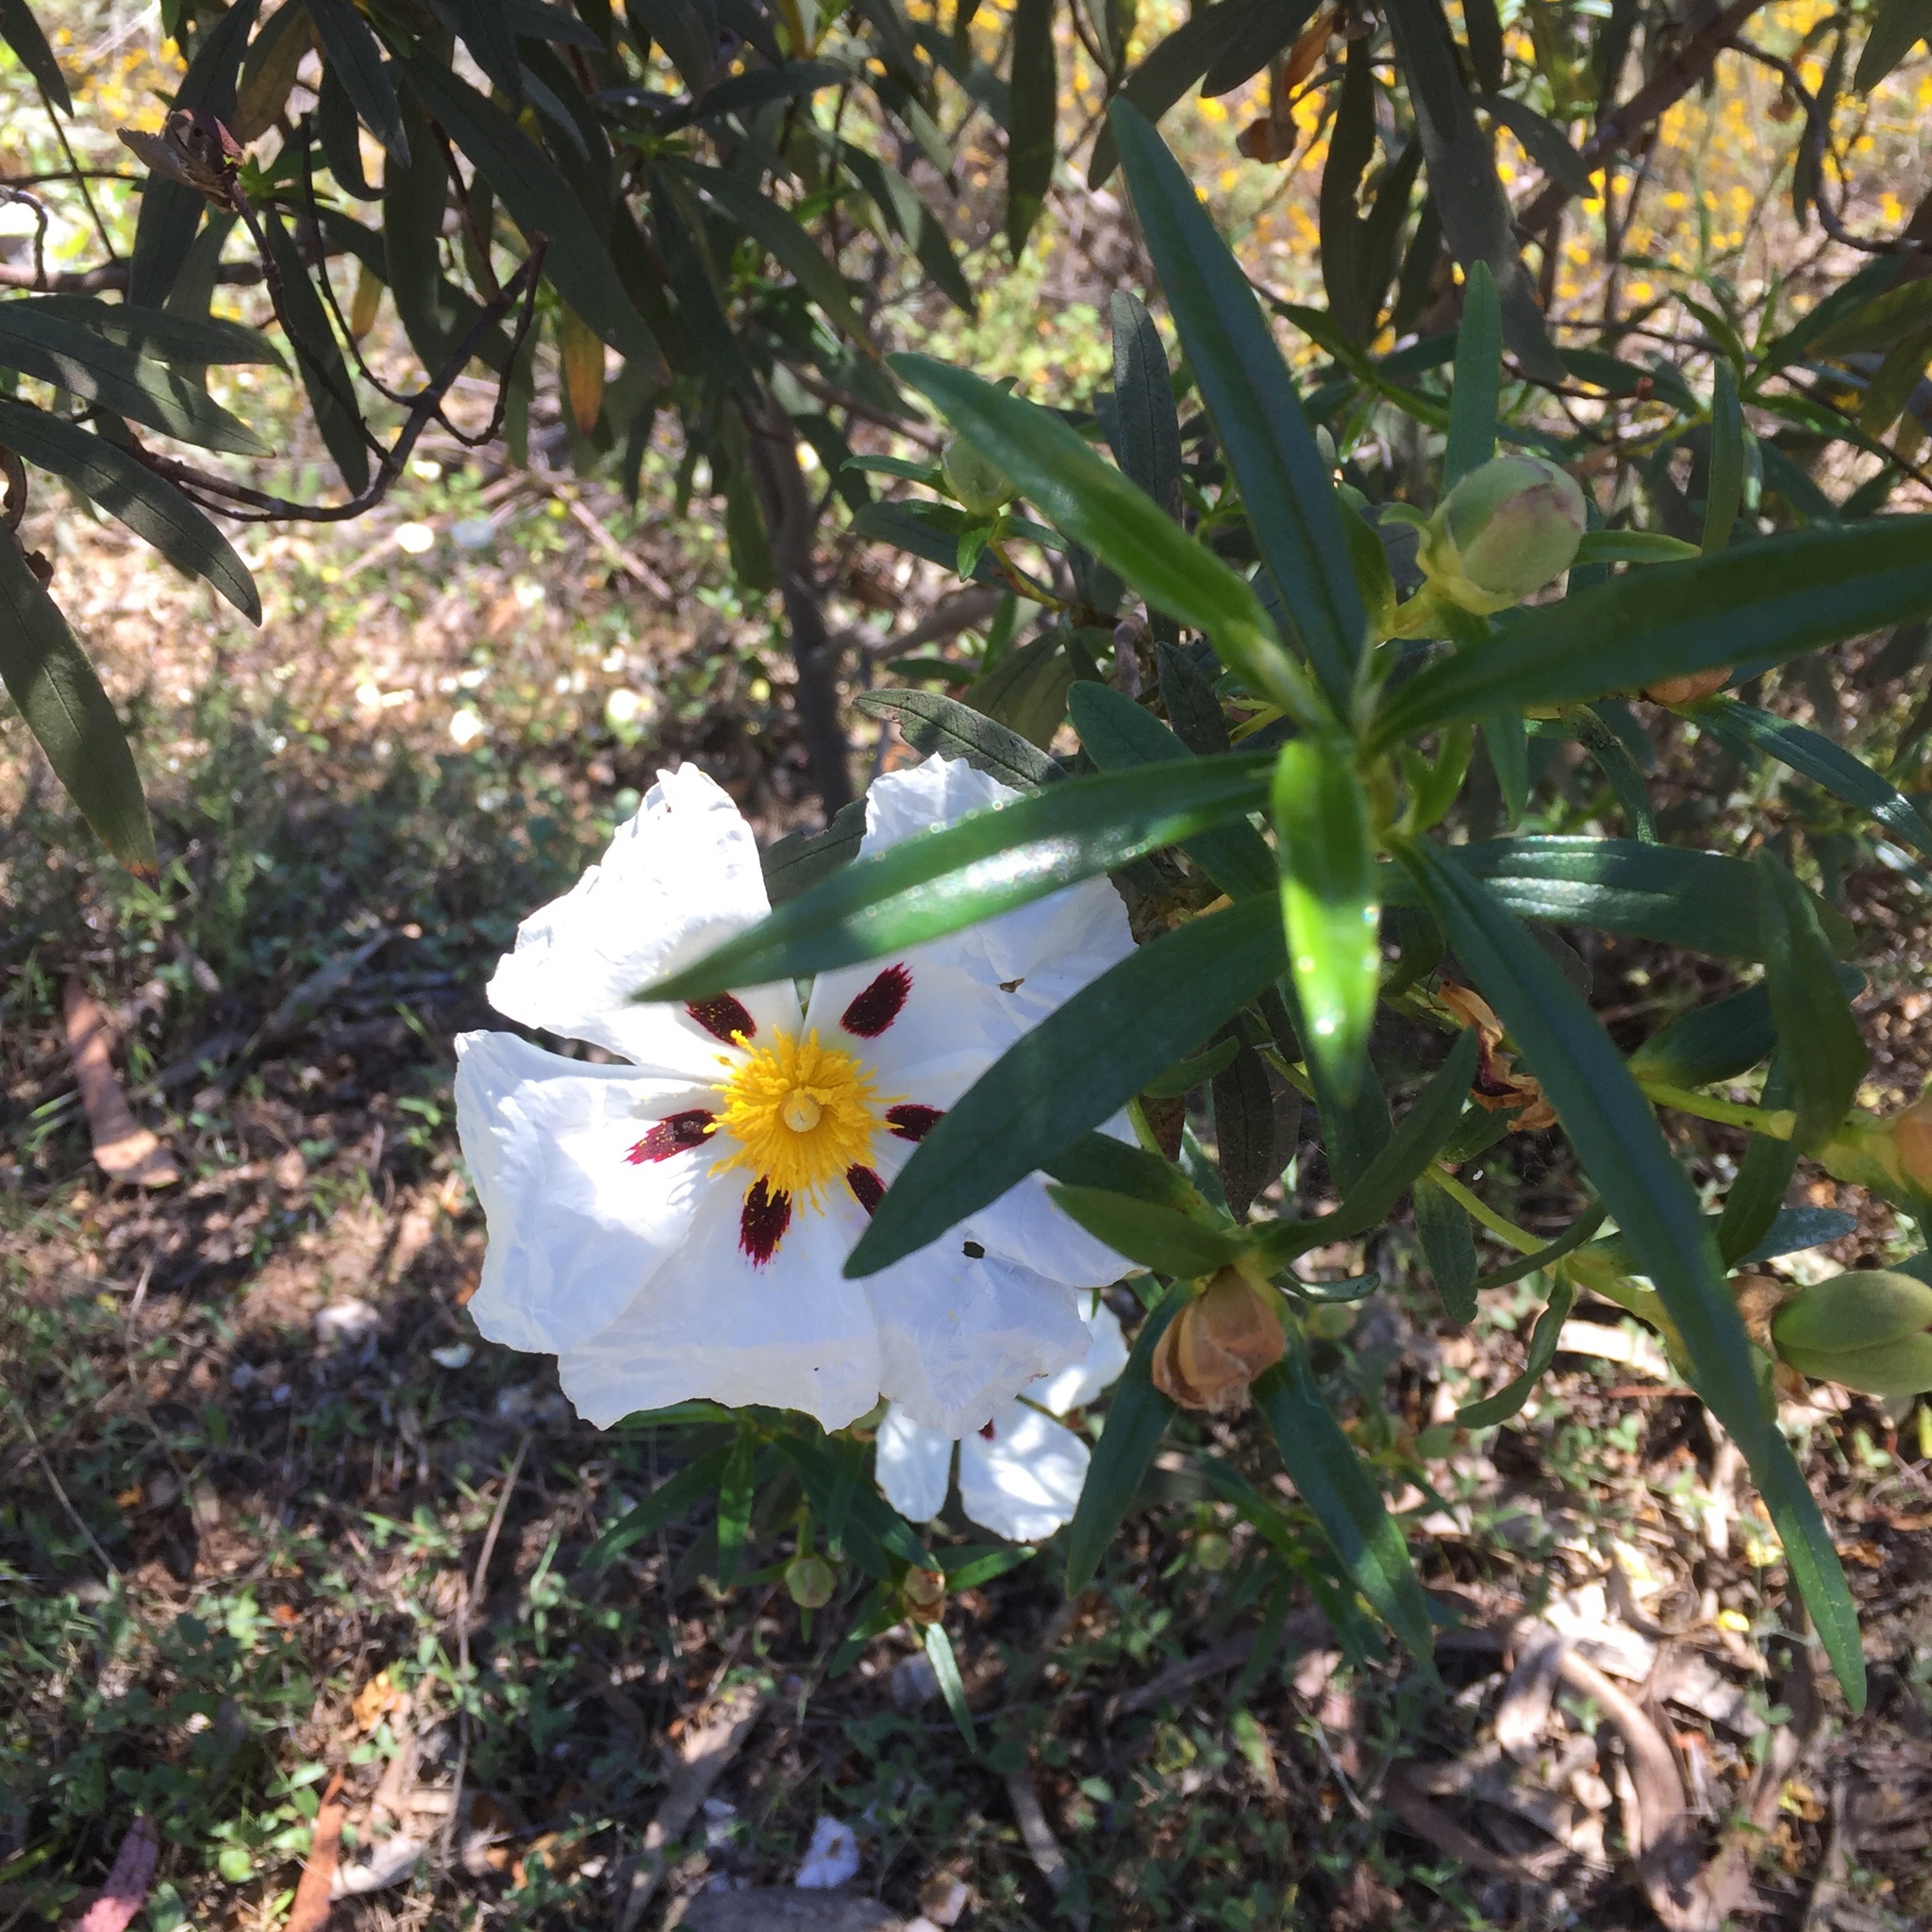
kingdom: Plantae
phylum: Tracheophyta
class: Magnoliopsida
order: Malvales
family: Cistaceae
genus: Cistus
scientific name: Cistus ladanifer
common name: Common gum cistus
